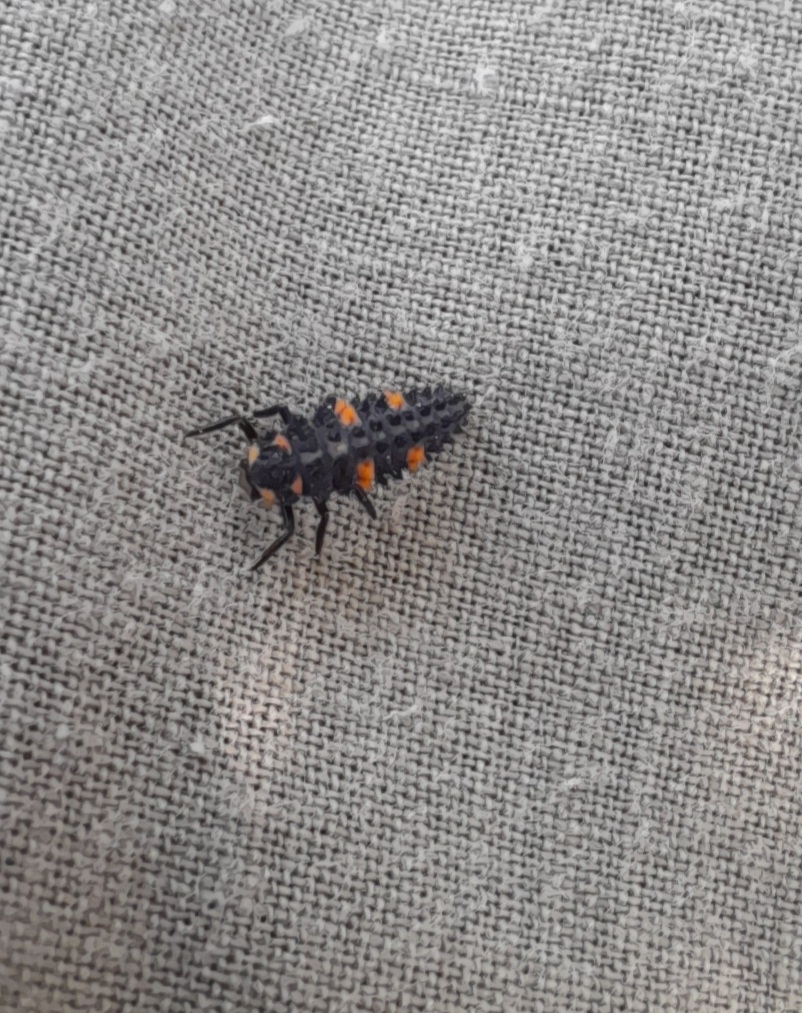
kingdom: Animalia
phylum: Arthropoda
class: Insecta
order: Coleoptera
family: Coccinellidae
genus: Coccinella
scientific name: Coccinella septempunctata
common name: Sevenspotted lady beetle
